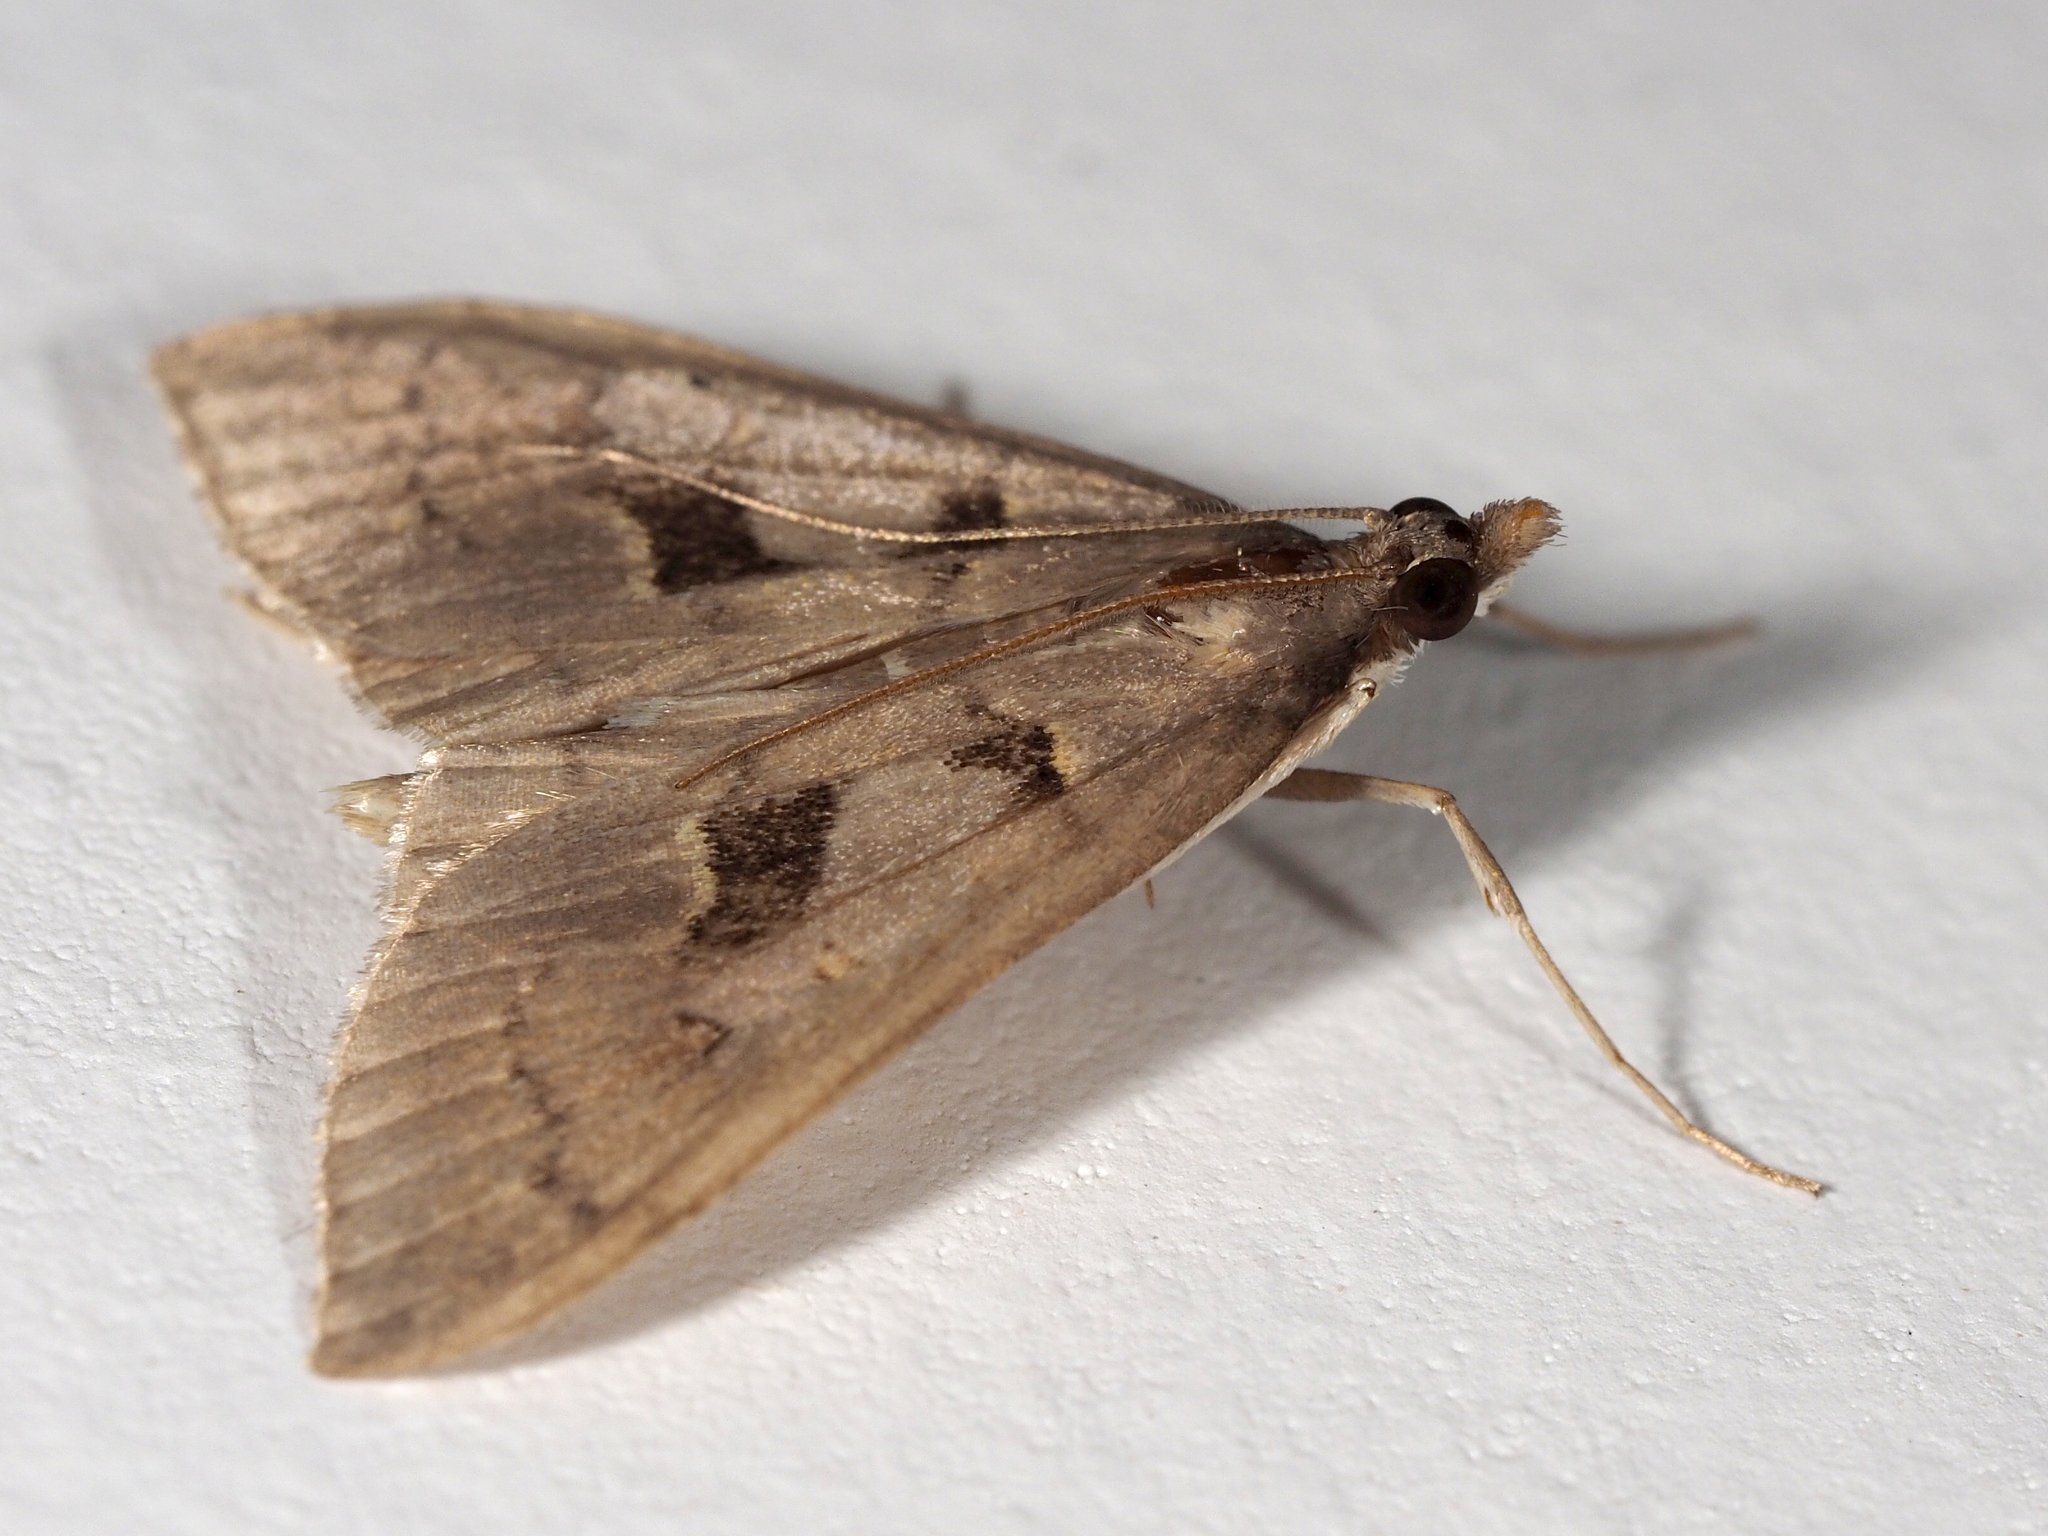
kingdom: Animalia
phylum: Arthropoda
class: Insecta
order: Lepidoptera
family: Crambidae
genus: Mecyna
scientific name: Mecyna asinalis
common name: Coastal pearl
